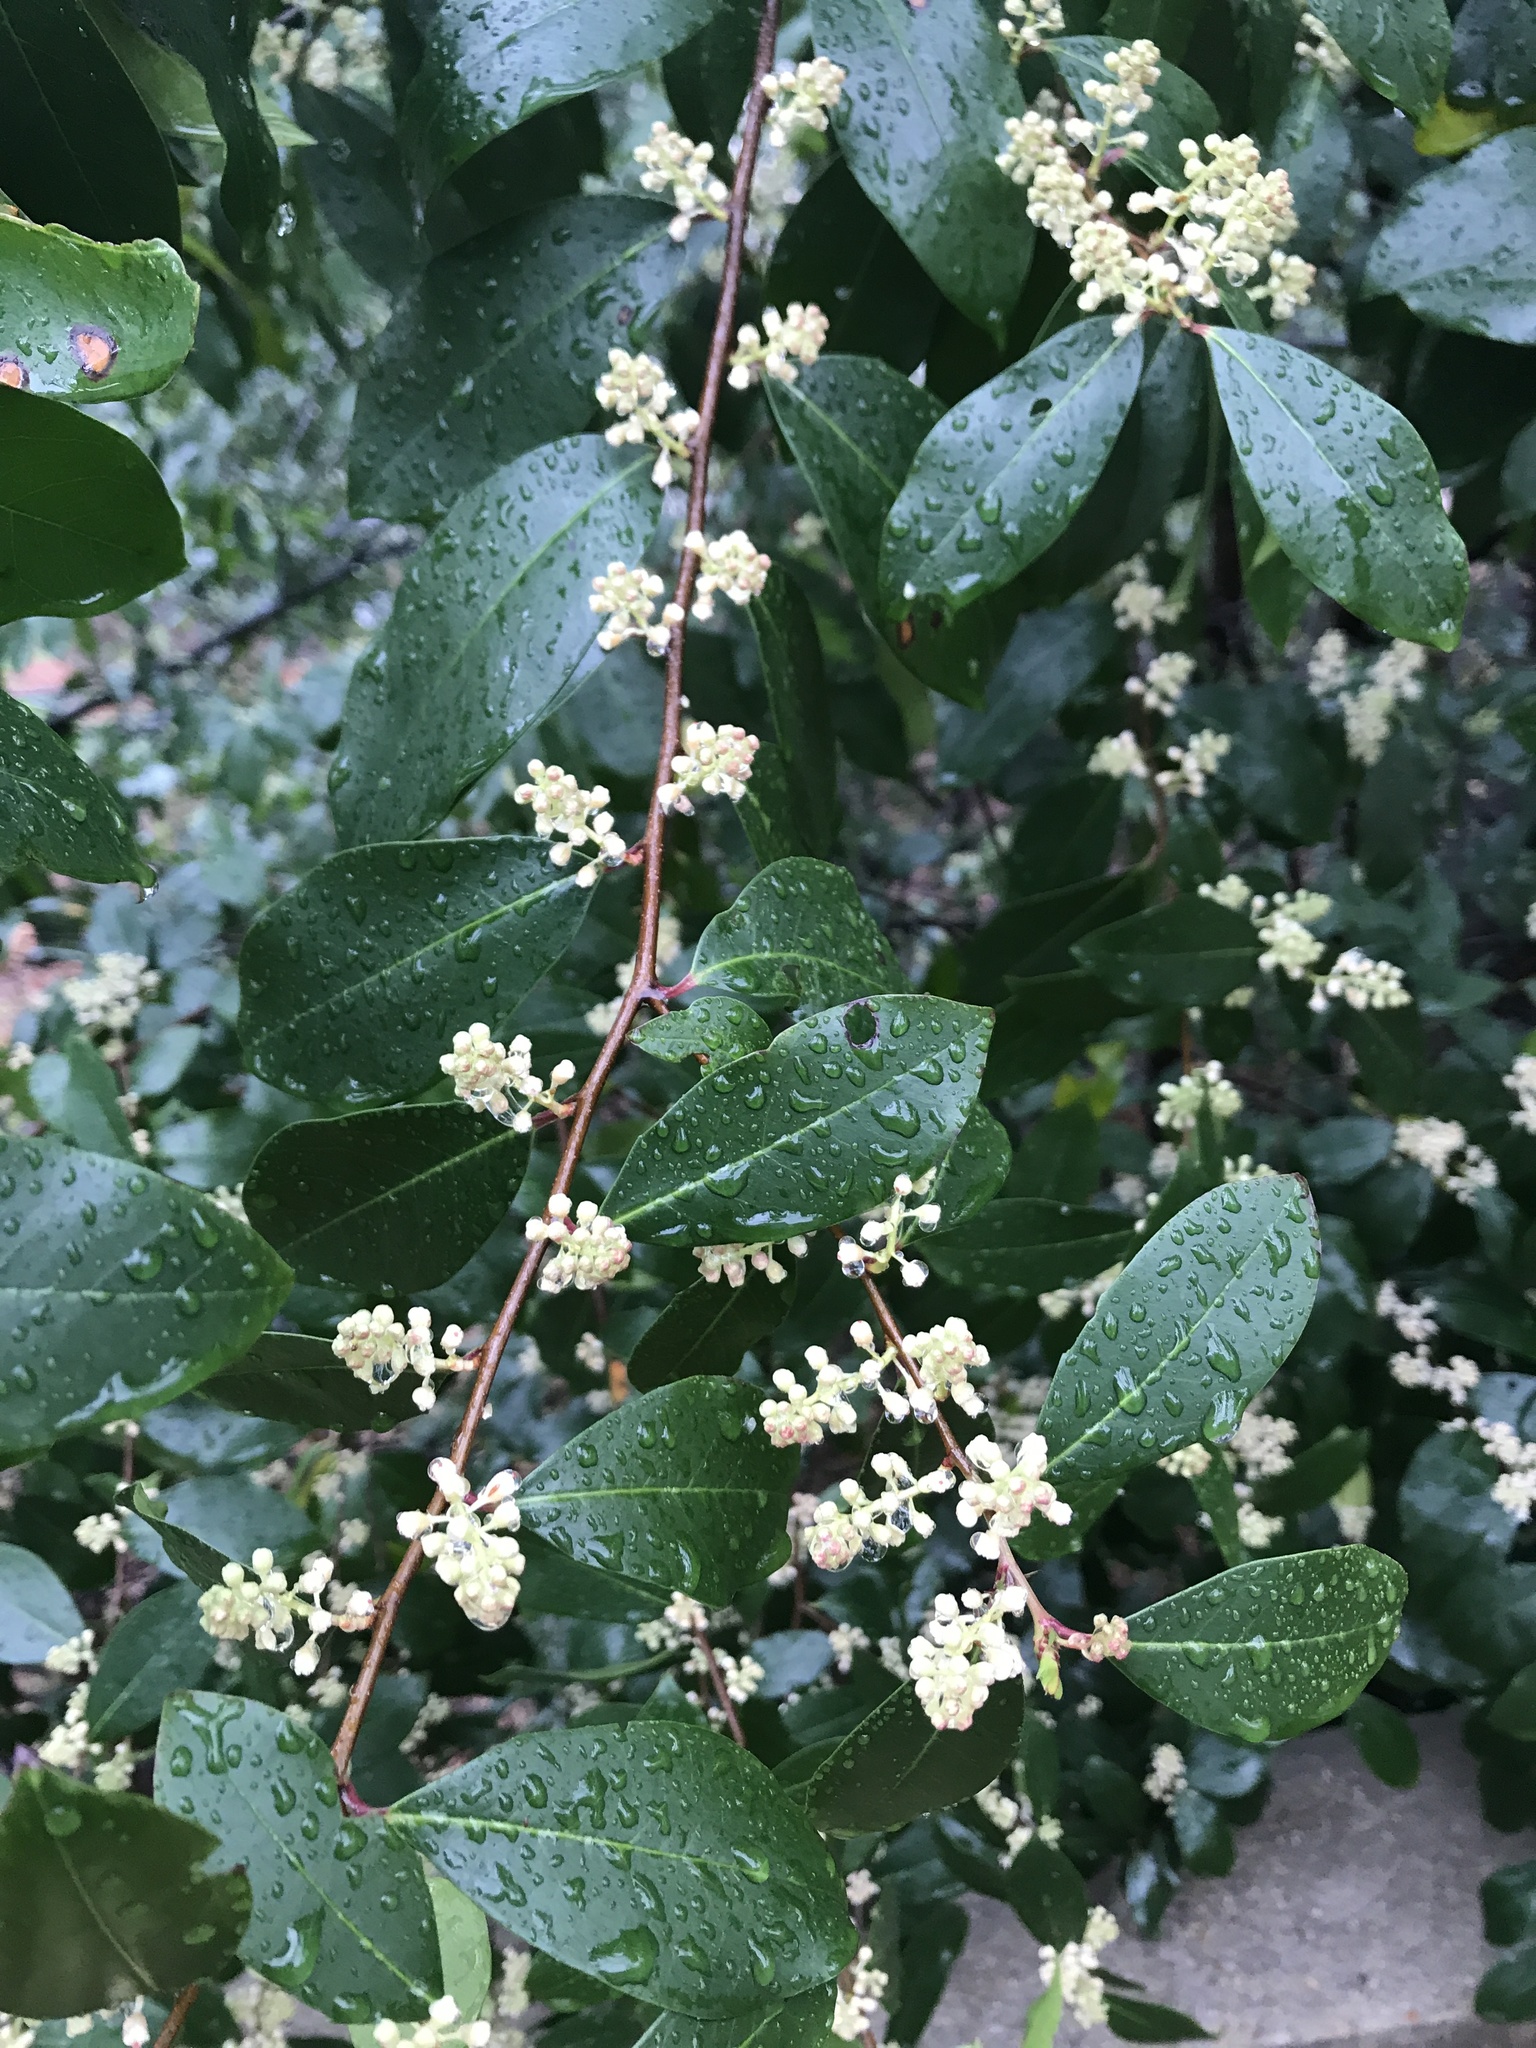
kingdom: Plantae
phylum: Tracheophyta
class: Magnoliopsida
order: Rosales
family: Rosaceae
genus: Prunus
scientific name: Prunus caroliniana
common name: Carolina laurel cherry
